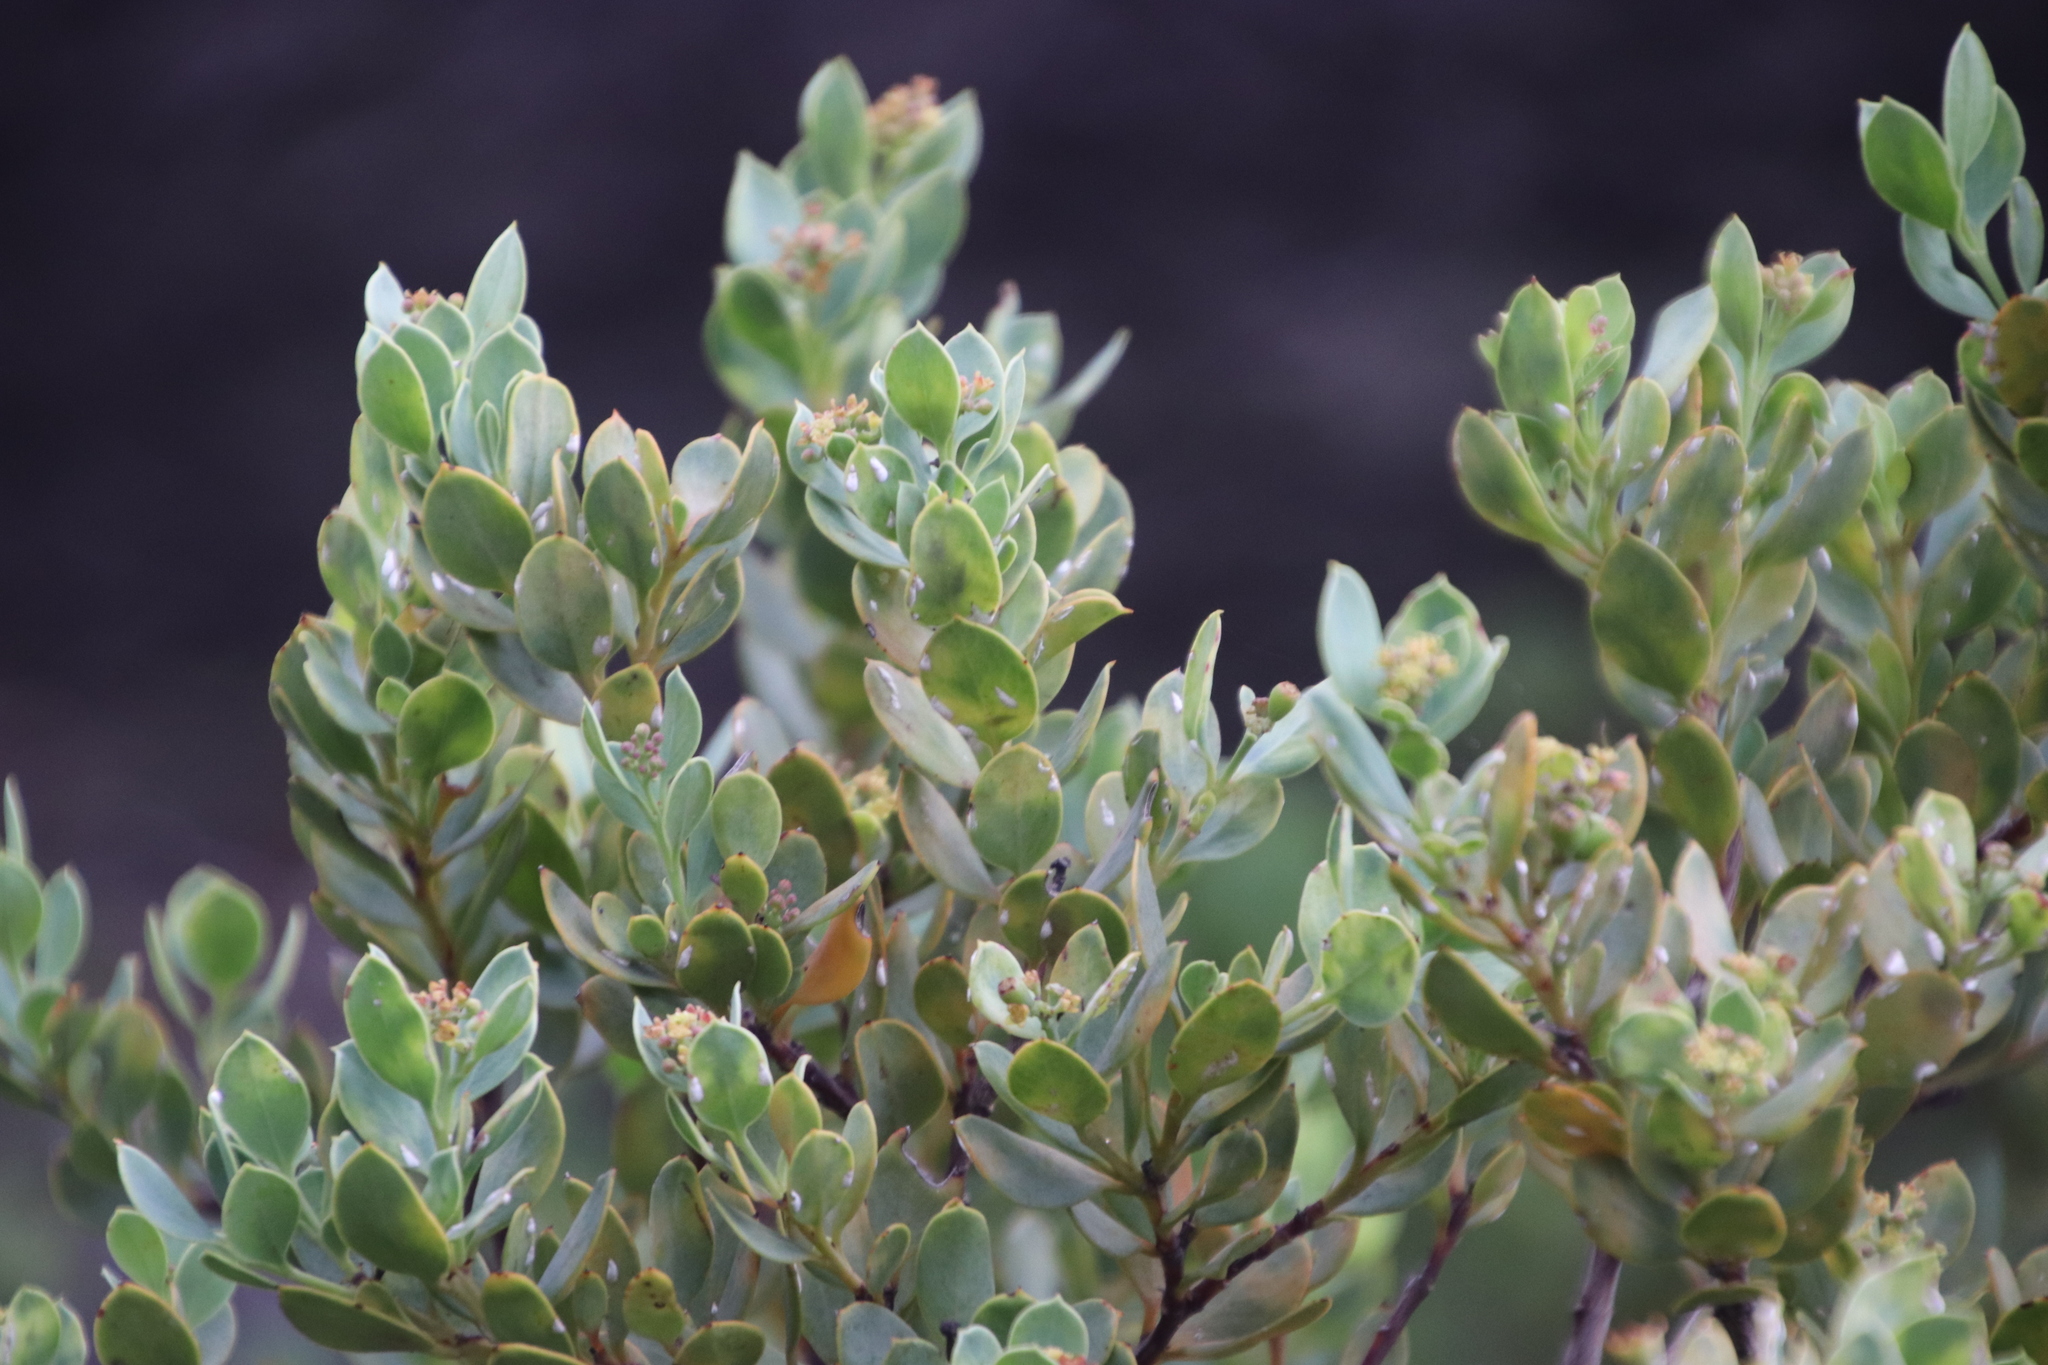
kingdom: Plantae
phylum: Tracheophyta
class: Magnoliopsida
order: Santalales
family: Santalaceae
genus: Osyris
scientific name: Osyris compressa
